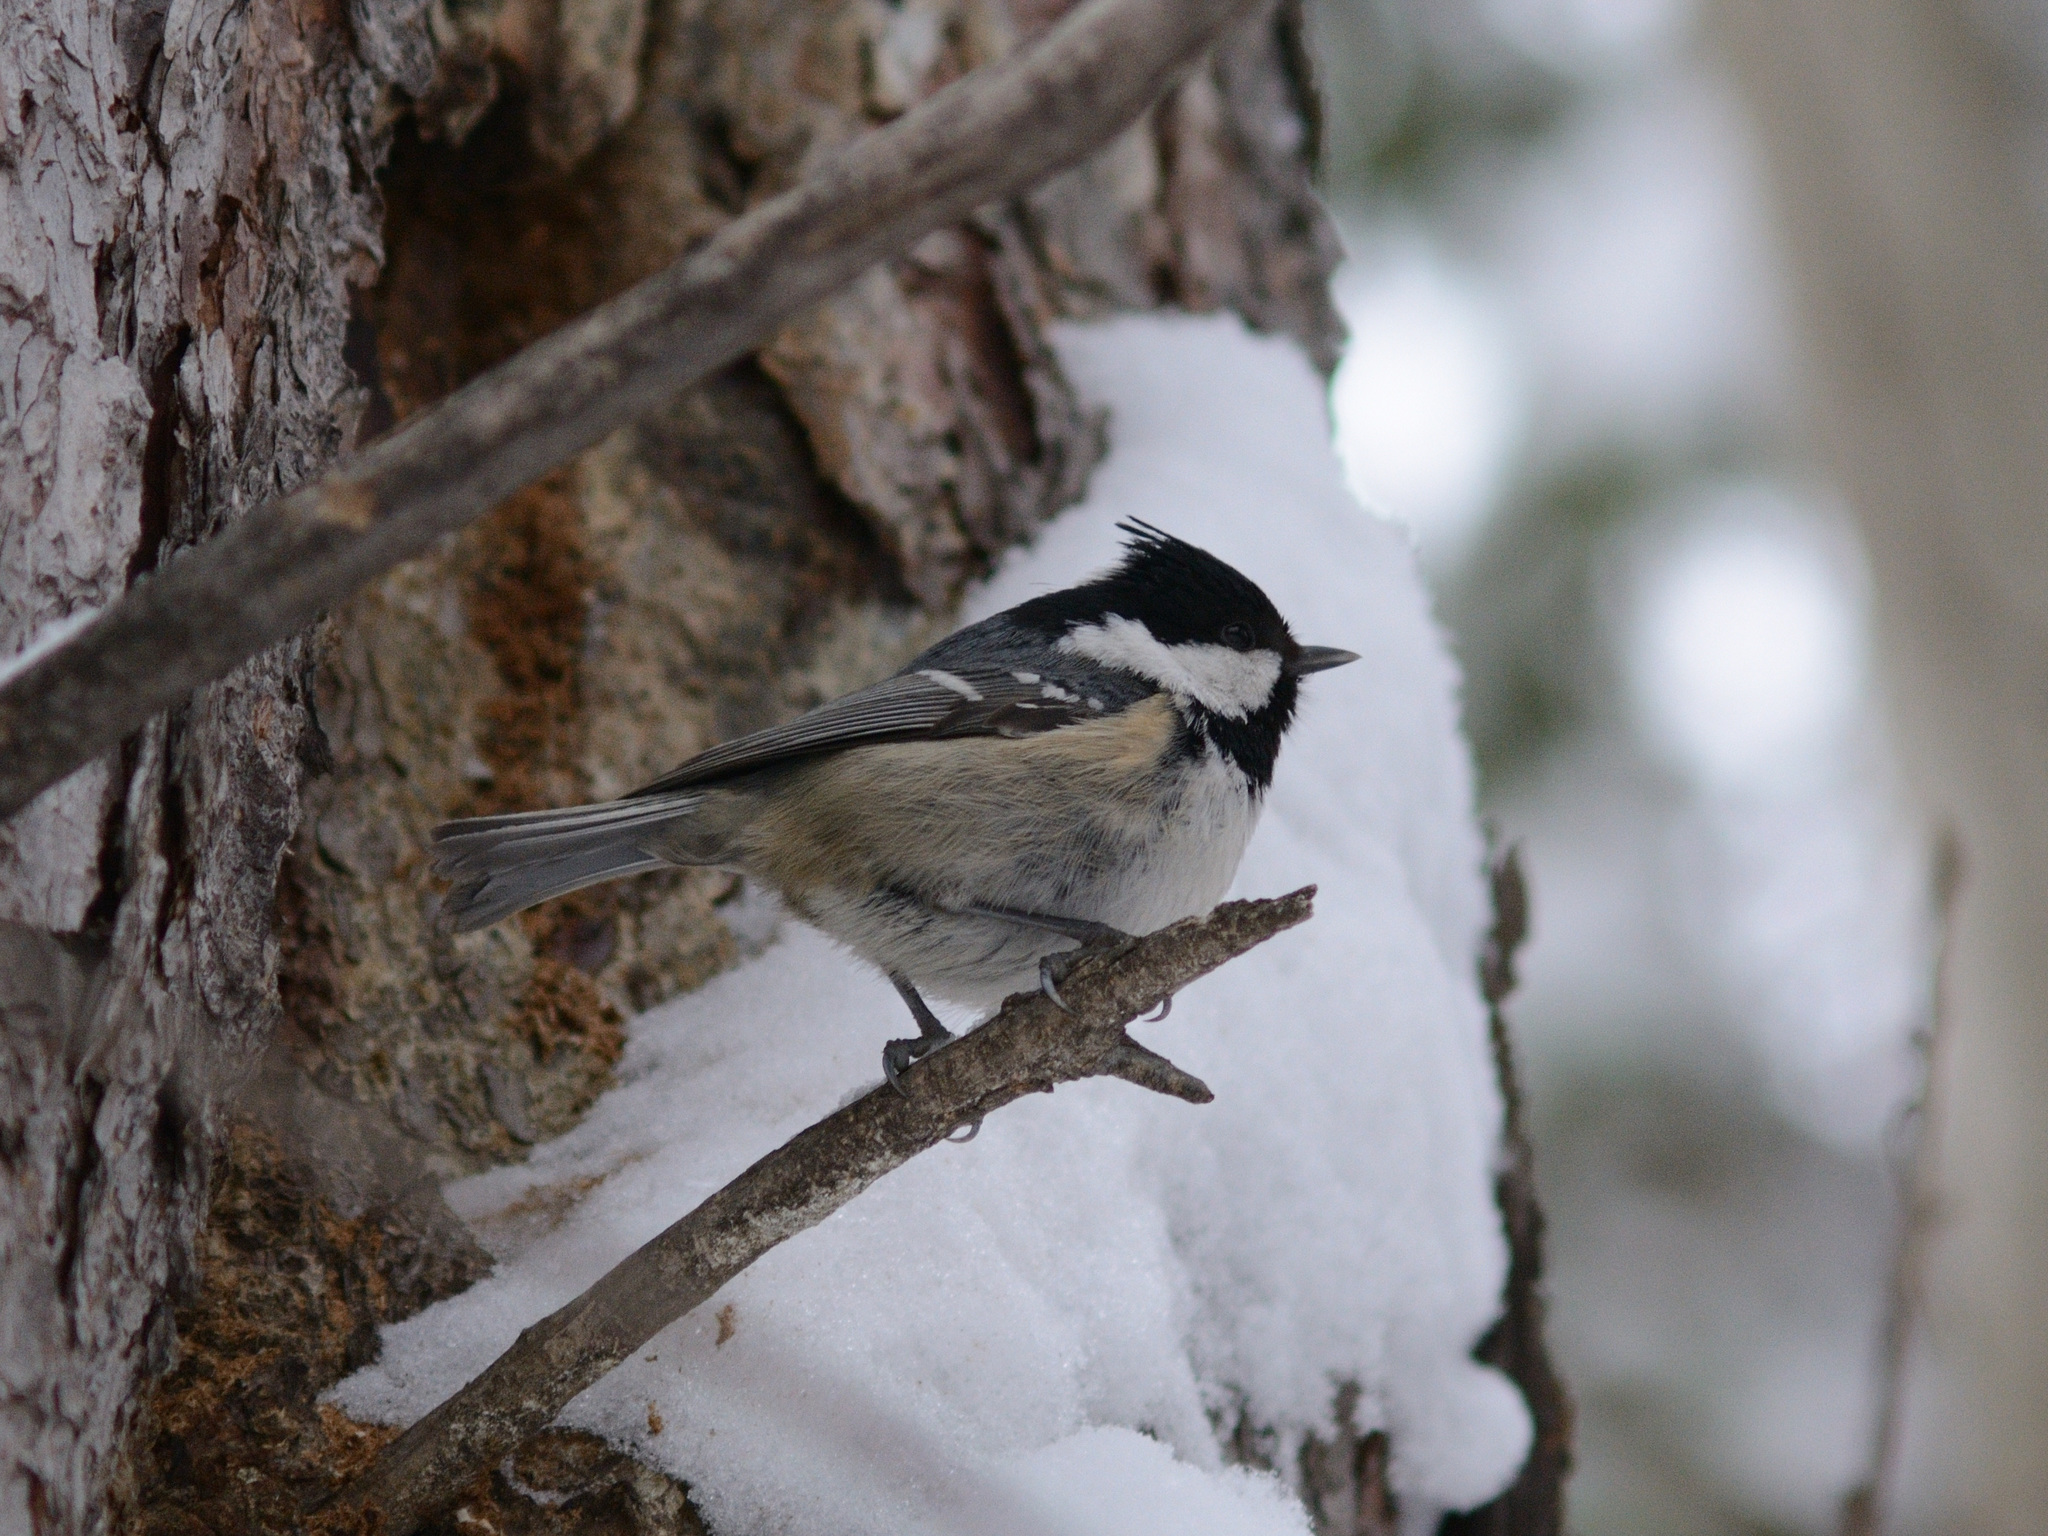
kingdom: Animalia
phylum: Chordata
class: Aves
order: Passeriformes
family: Paridae
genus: Periparus
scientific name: Periparus ater
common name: Coal tit
